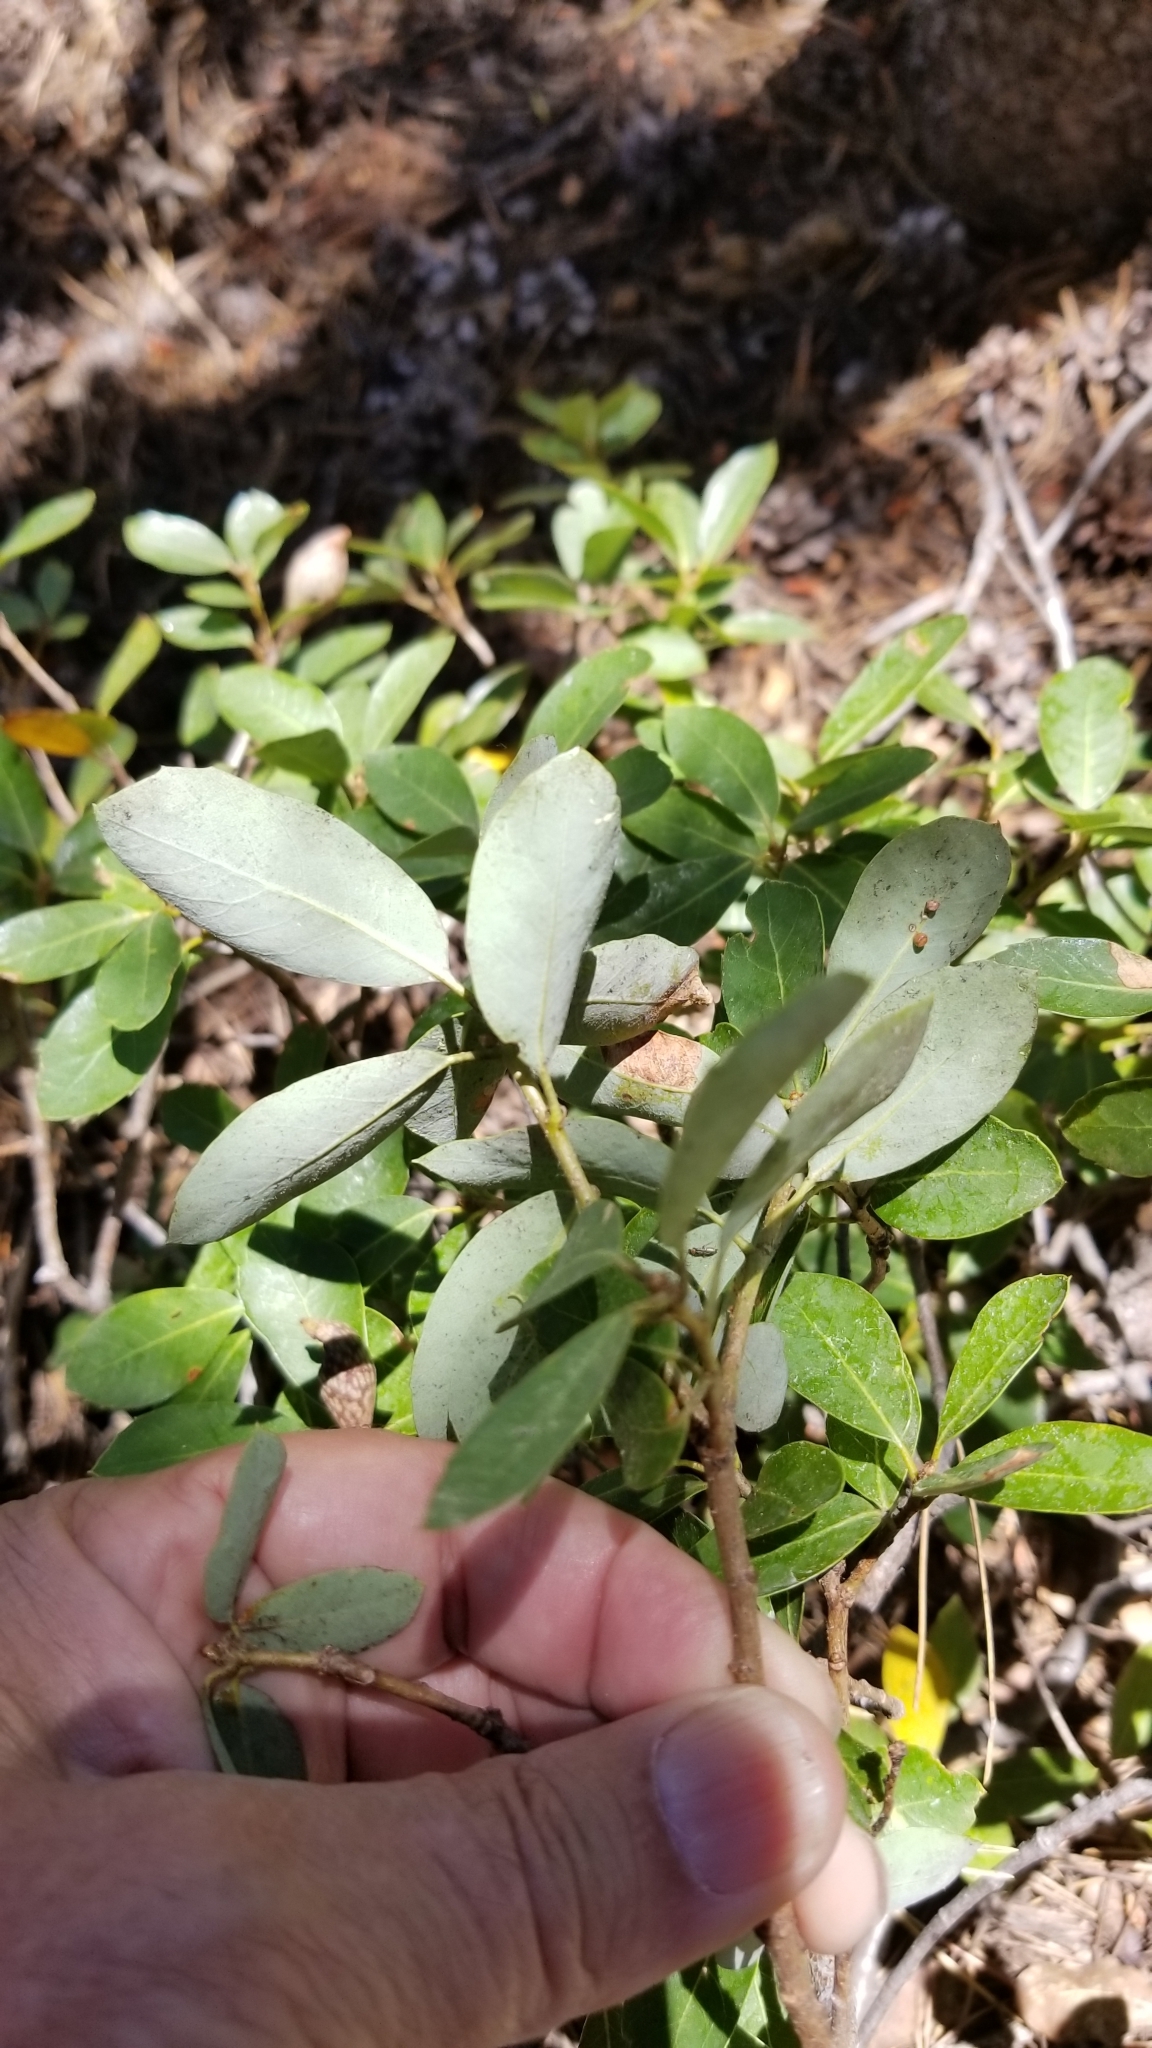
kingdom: Plantae
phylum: Tracheophyta
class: Magnoliopsida
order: Fagales
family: Fagaceae
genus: Quercus
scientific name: Quercus vacciniifolia
